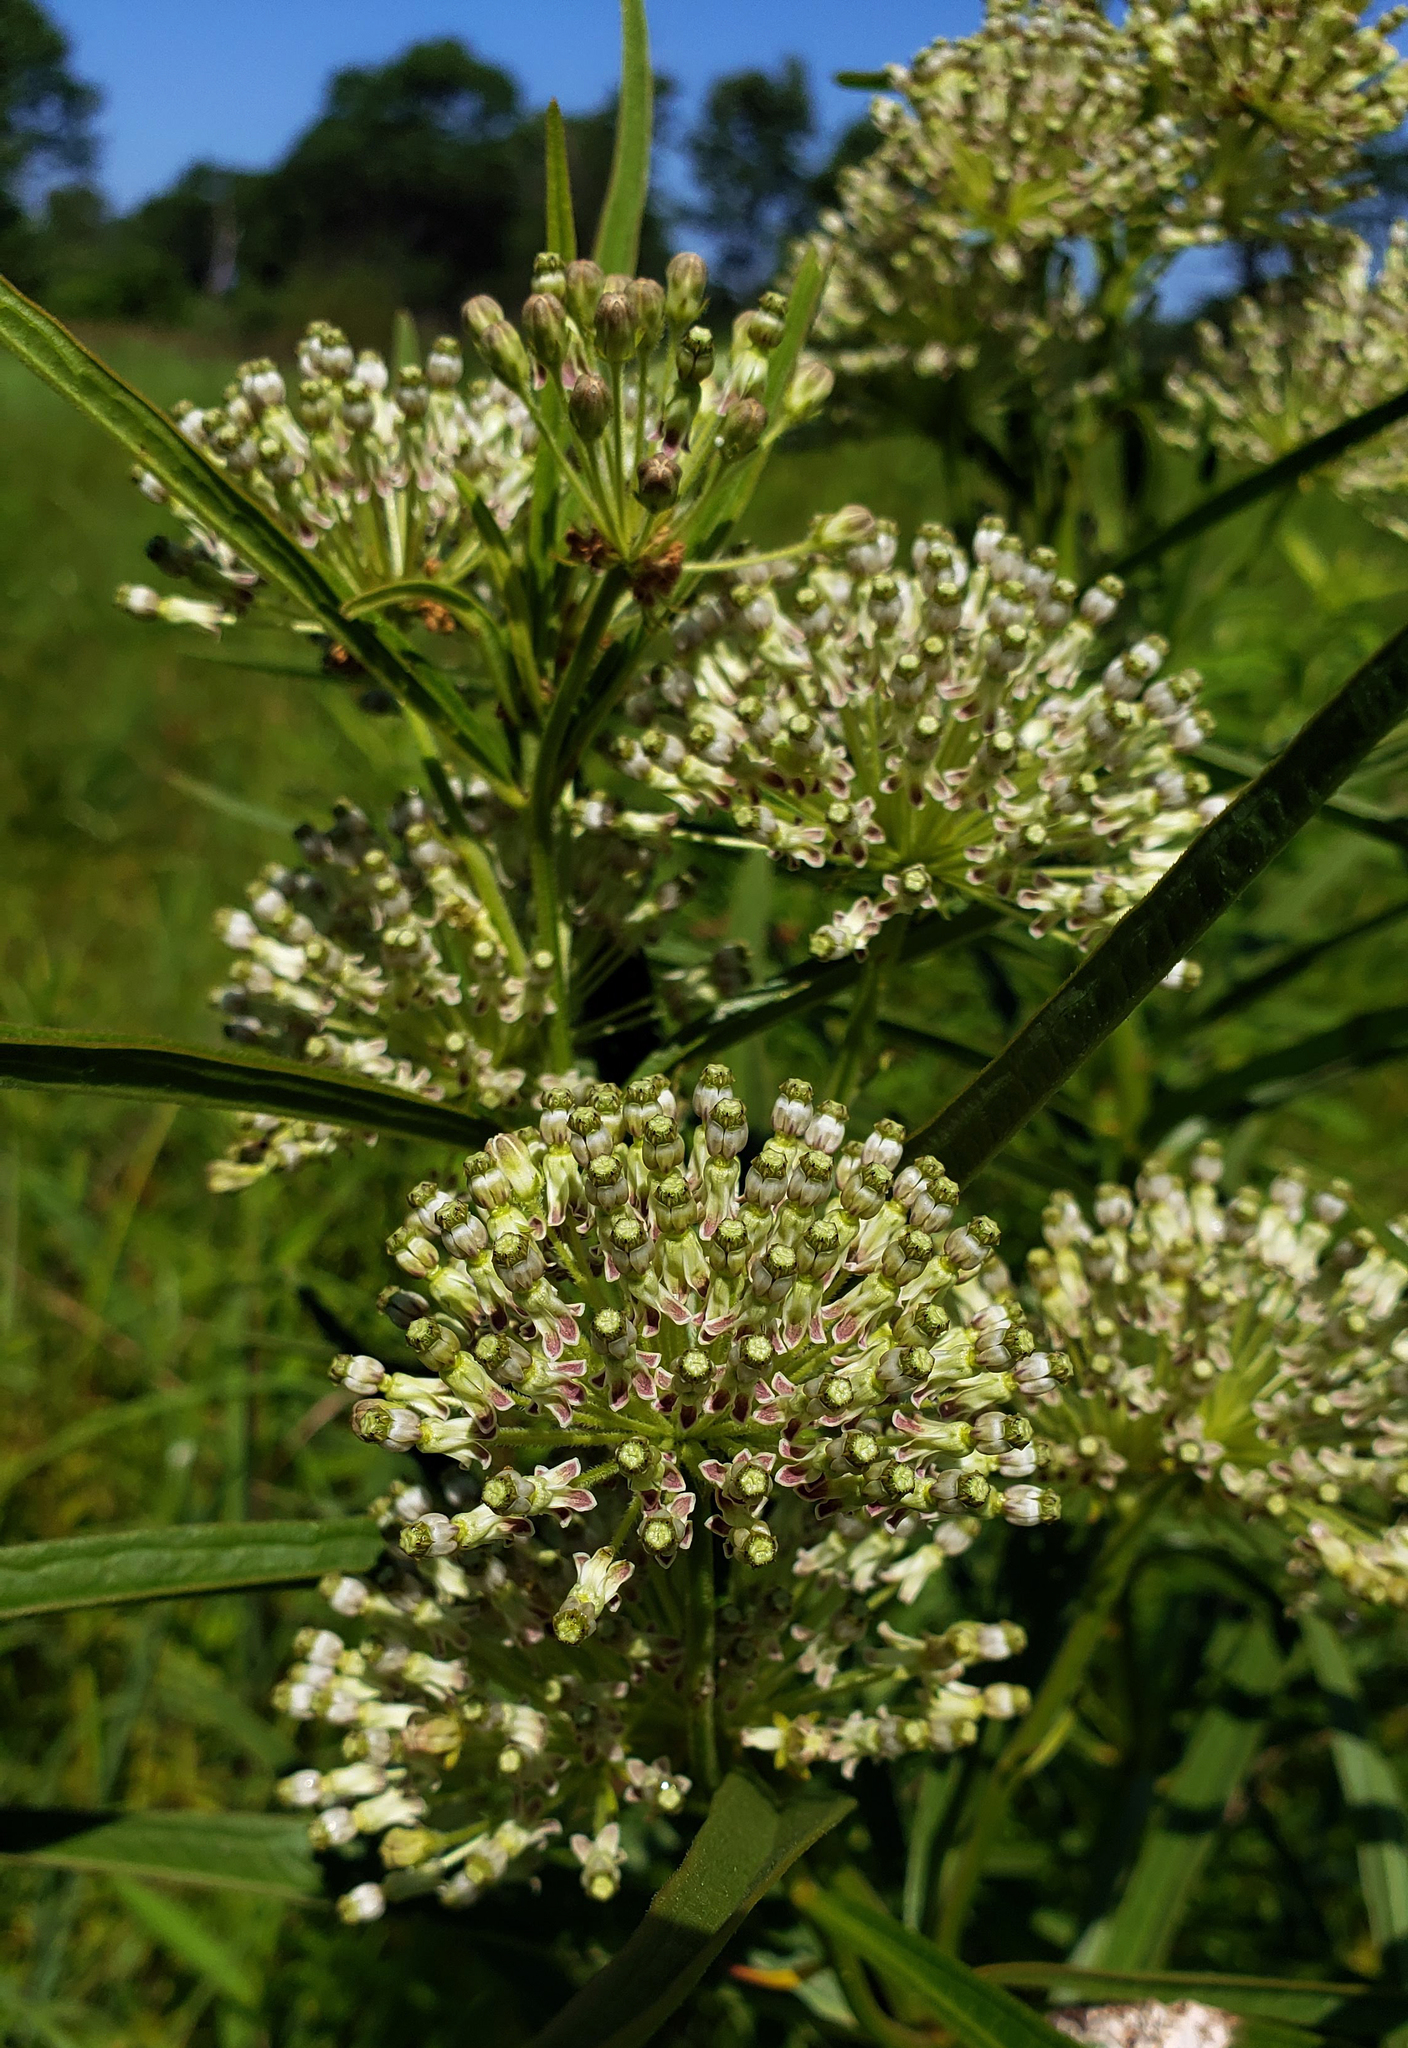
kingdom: Plantae
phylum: Tracheophyta
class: Magnoliopsida
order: Gentianales
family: Apocynaceae
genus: Asclepias
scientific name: Asclepias hirtella
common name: Prairie milkweed
